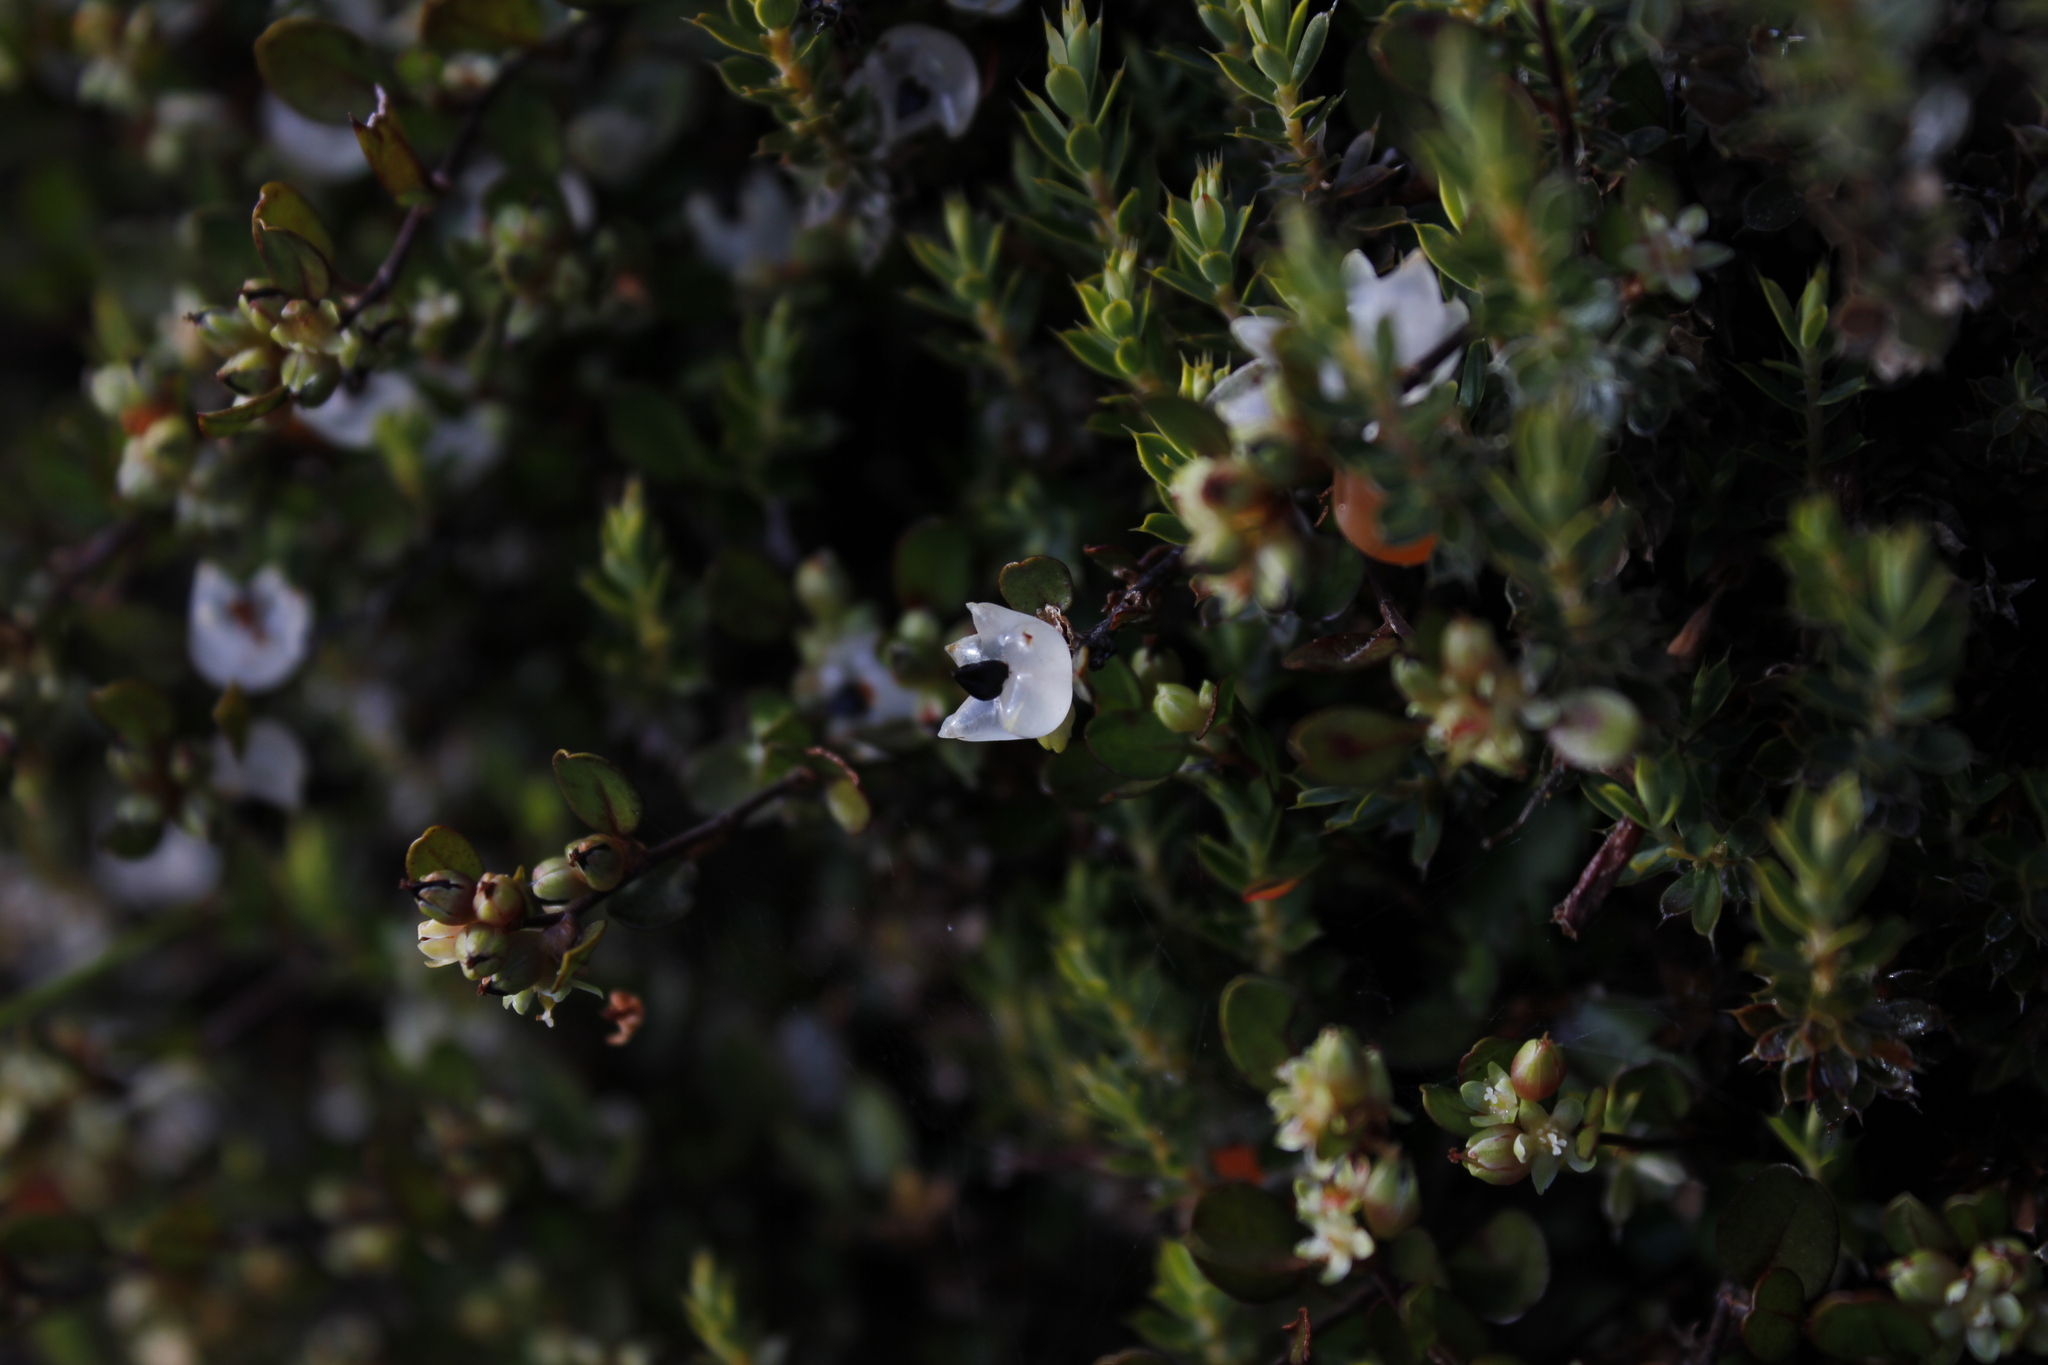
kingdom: Plantae
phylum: Tracheophyta
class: Magnoliopsida
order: Caryophyllales
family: Polygonaceae
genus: Muehlenbeckia
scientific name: Muehlenbeckia axillaris
